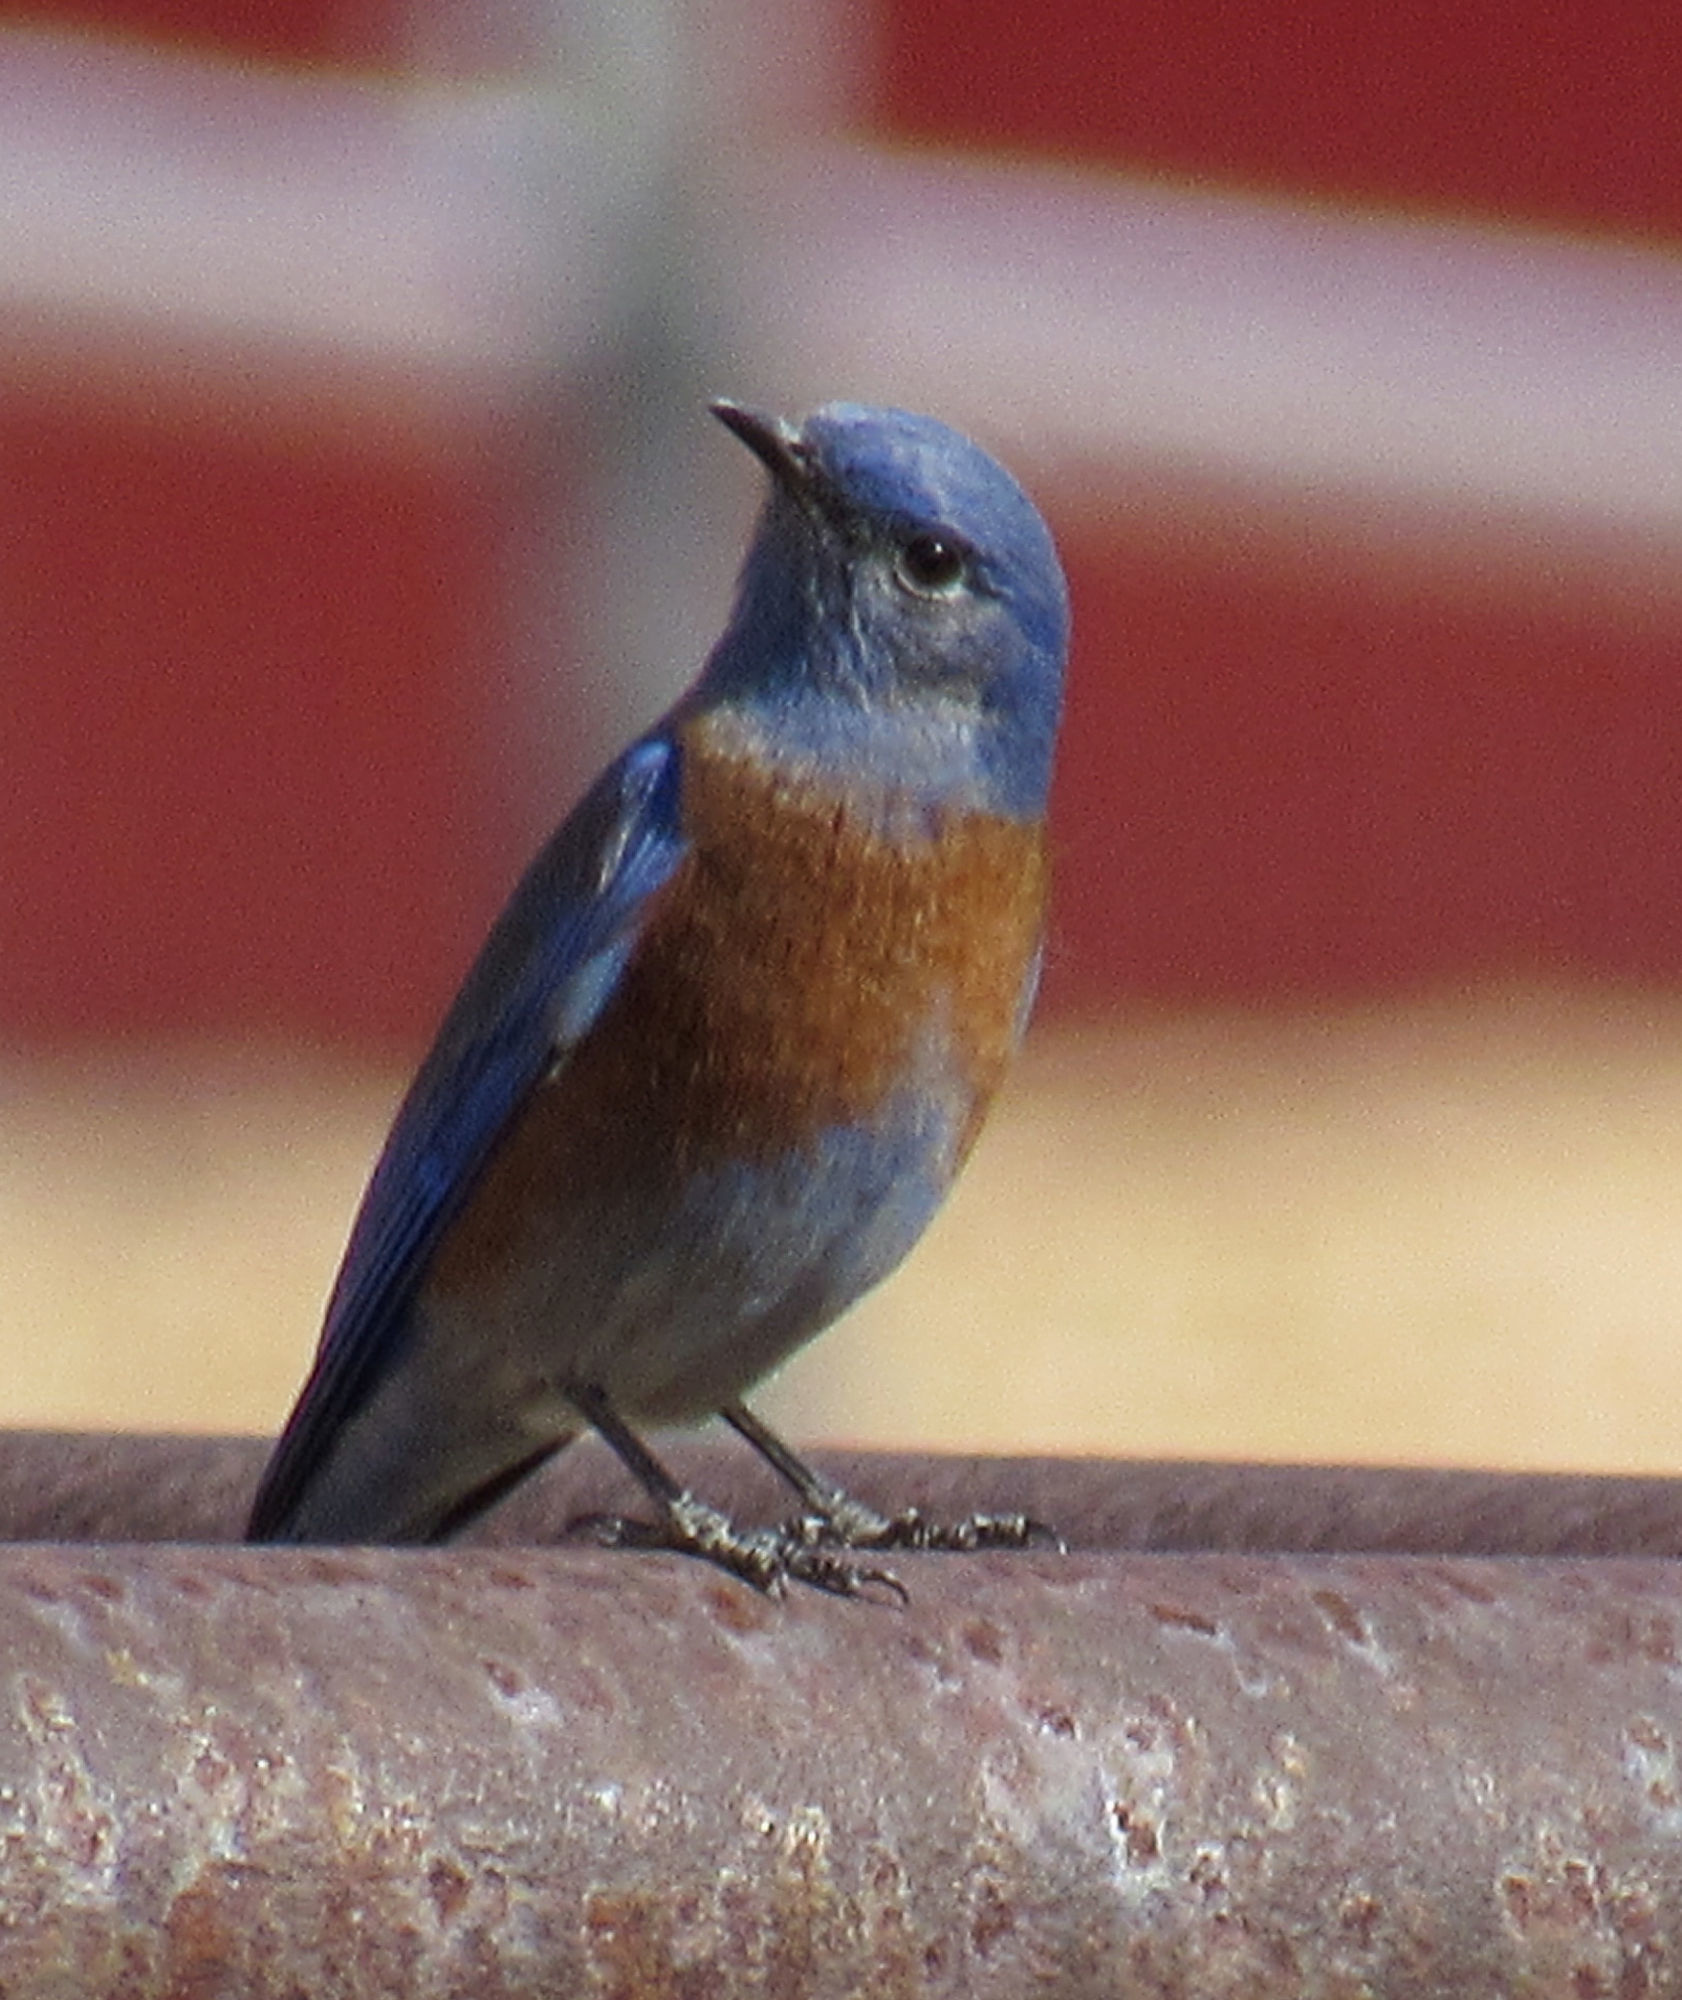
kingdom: Animalia
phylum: Chordata
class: Aves
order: Passeriformes
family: Turdidae
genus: Sialia
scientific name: Sialia mexicana
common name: Western bluebird
